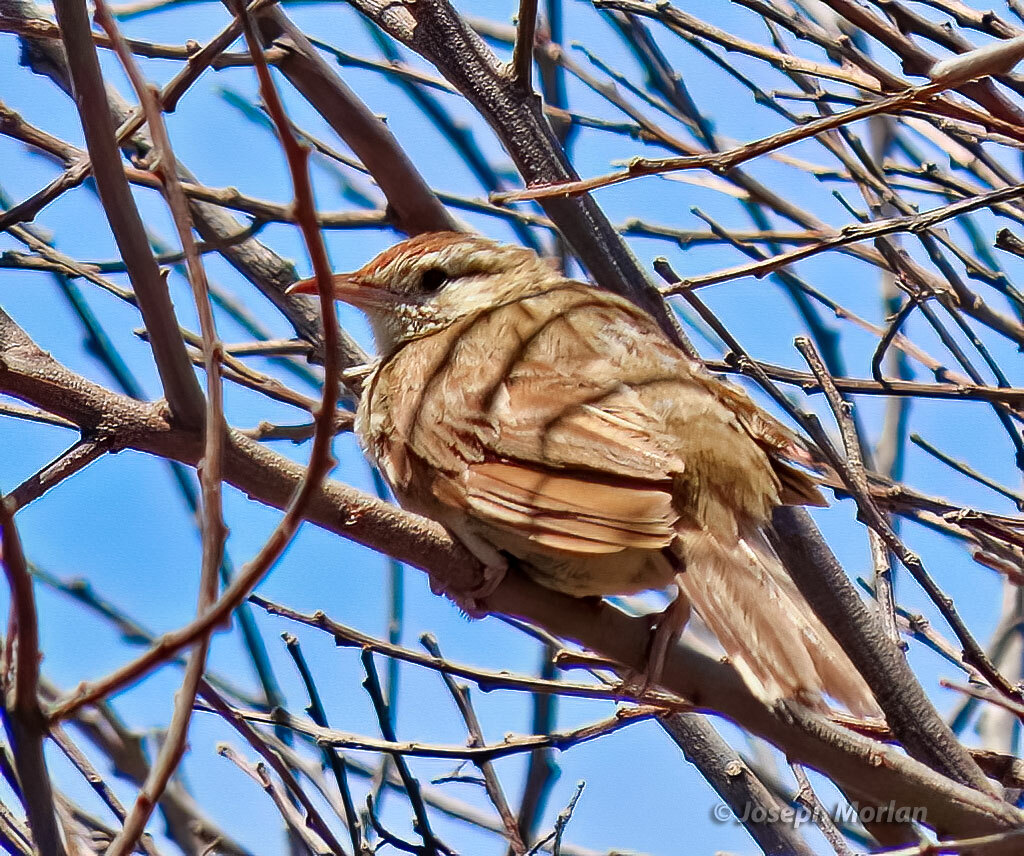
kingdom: Animalia
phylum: Chordata
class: Aves
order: Passeriformes
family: Furnariidae
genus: Anumbius
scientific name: Anumbius annumbi
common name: Firewood-gatherer
